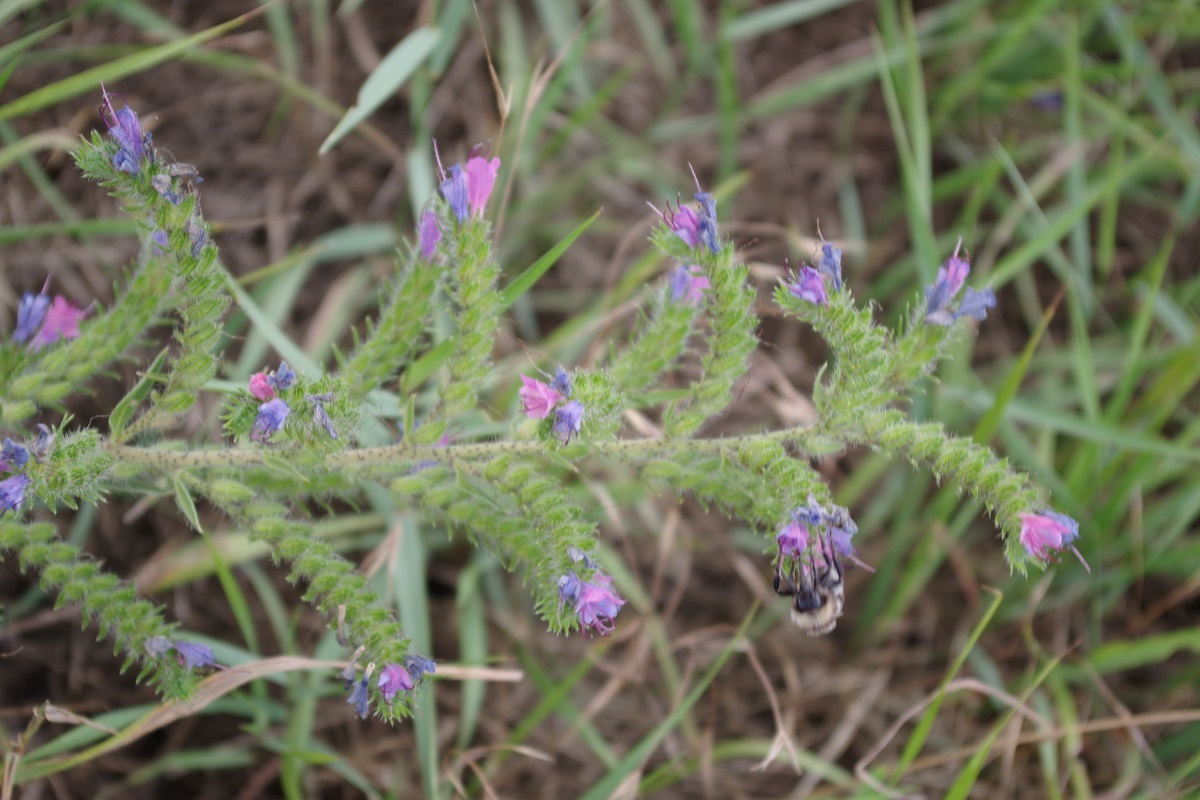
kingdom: Plantae
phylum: Tracheophyta
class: Magnoliopsida
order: Boraginales
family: Boraginaceae
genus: Echium
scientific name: Echium vulgare
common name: Common viper's bugloss
